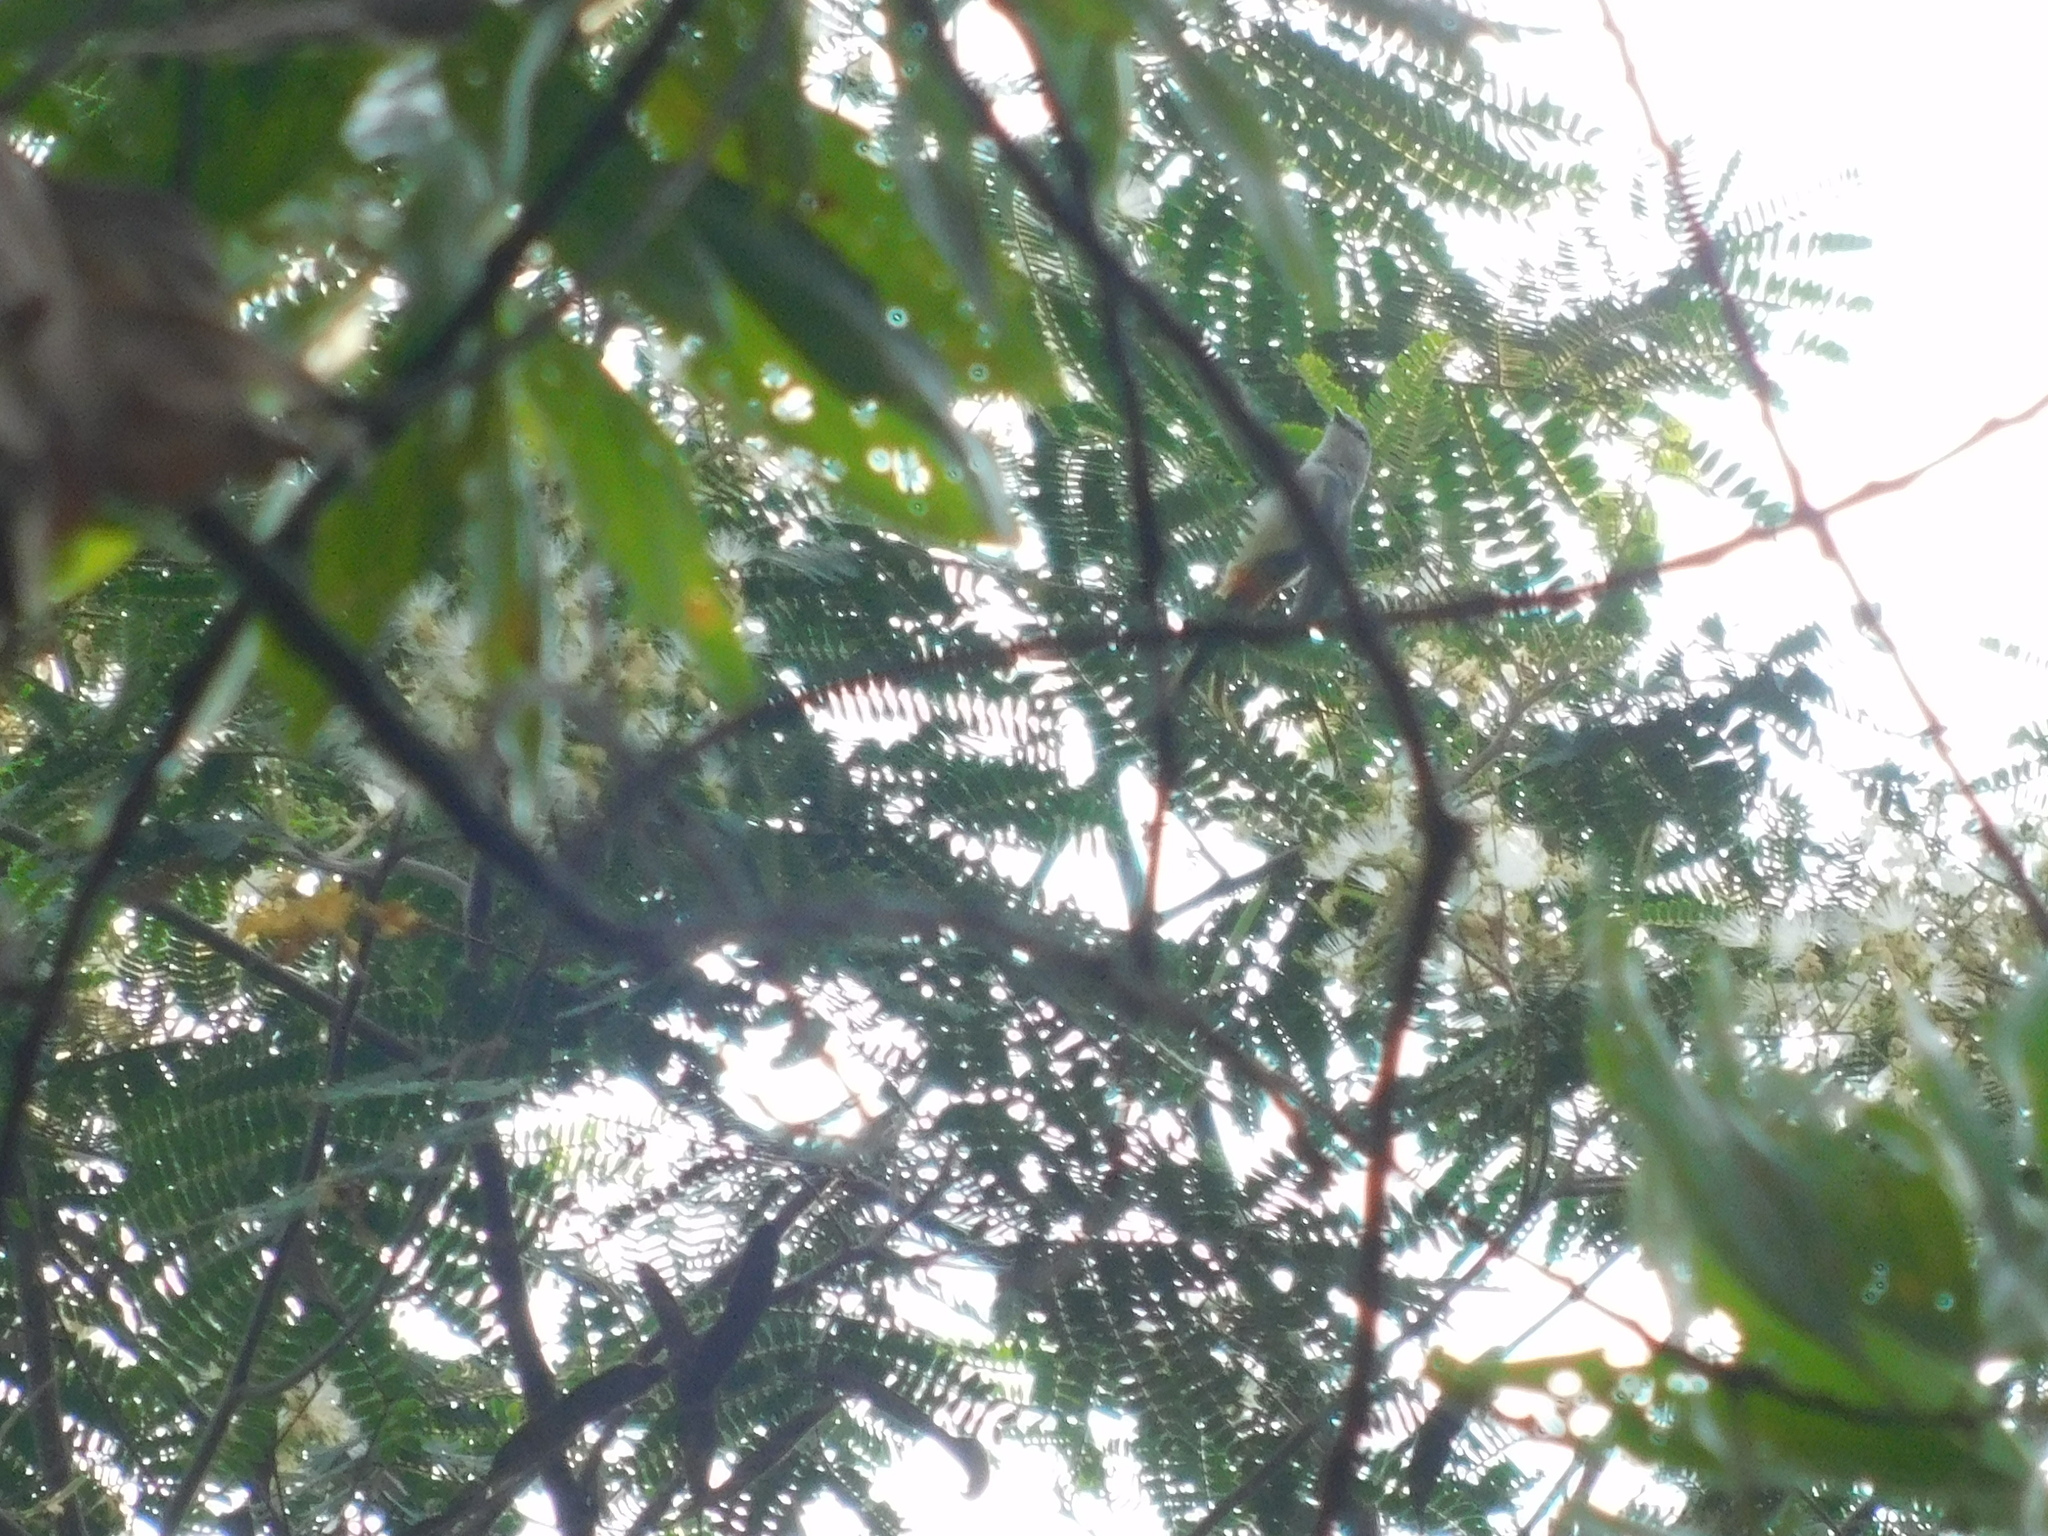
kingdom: Animalia
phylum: Chordata
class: Aves
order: Passeriformes
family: Campephagidae
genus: Pericrocotus
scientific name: Pericrocotus cinnamomeus
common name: Small minivet
